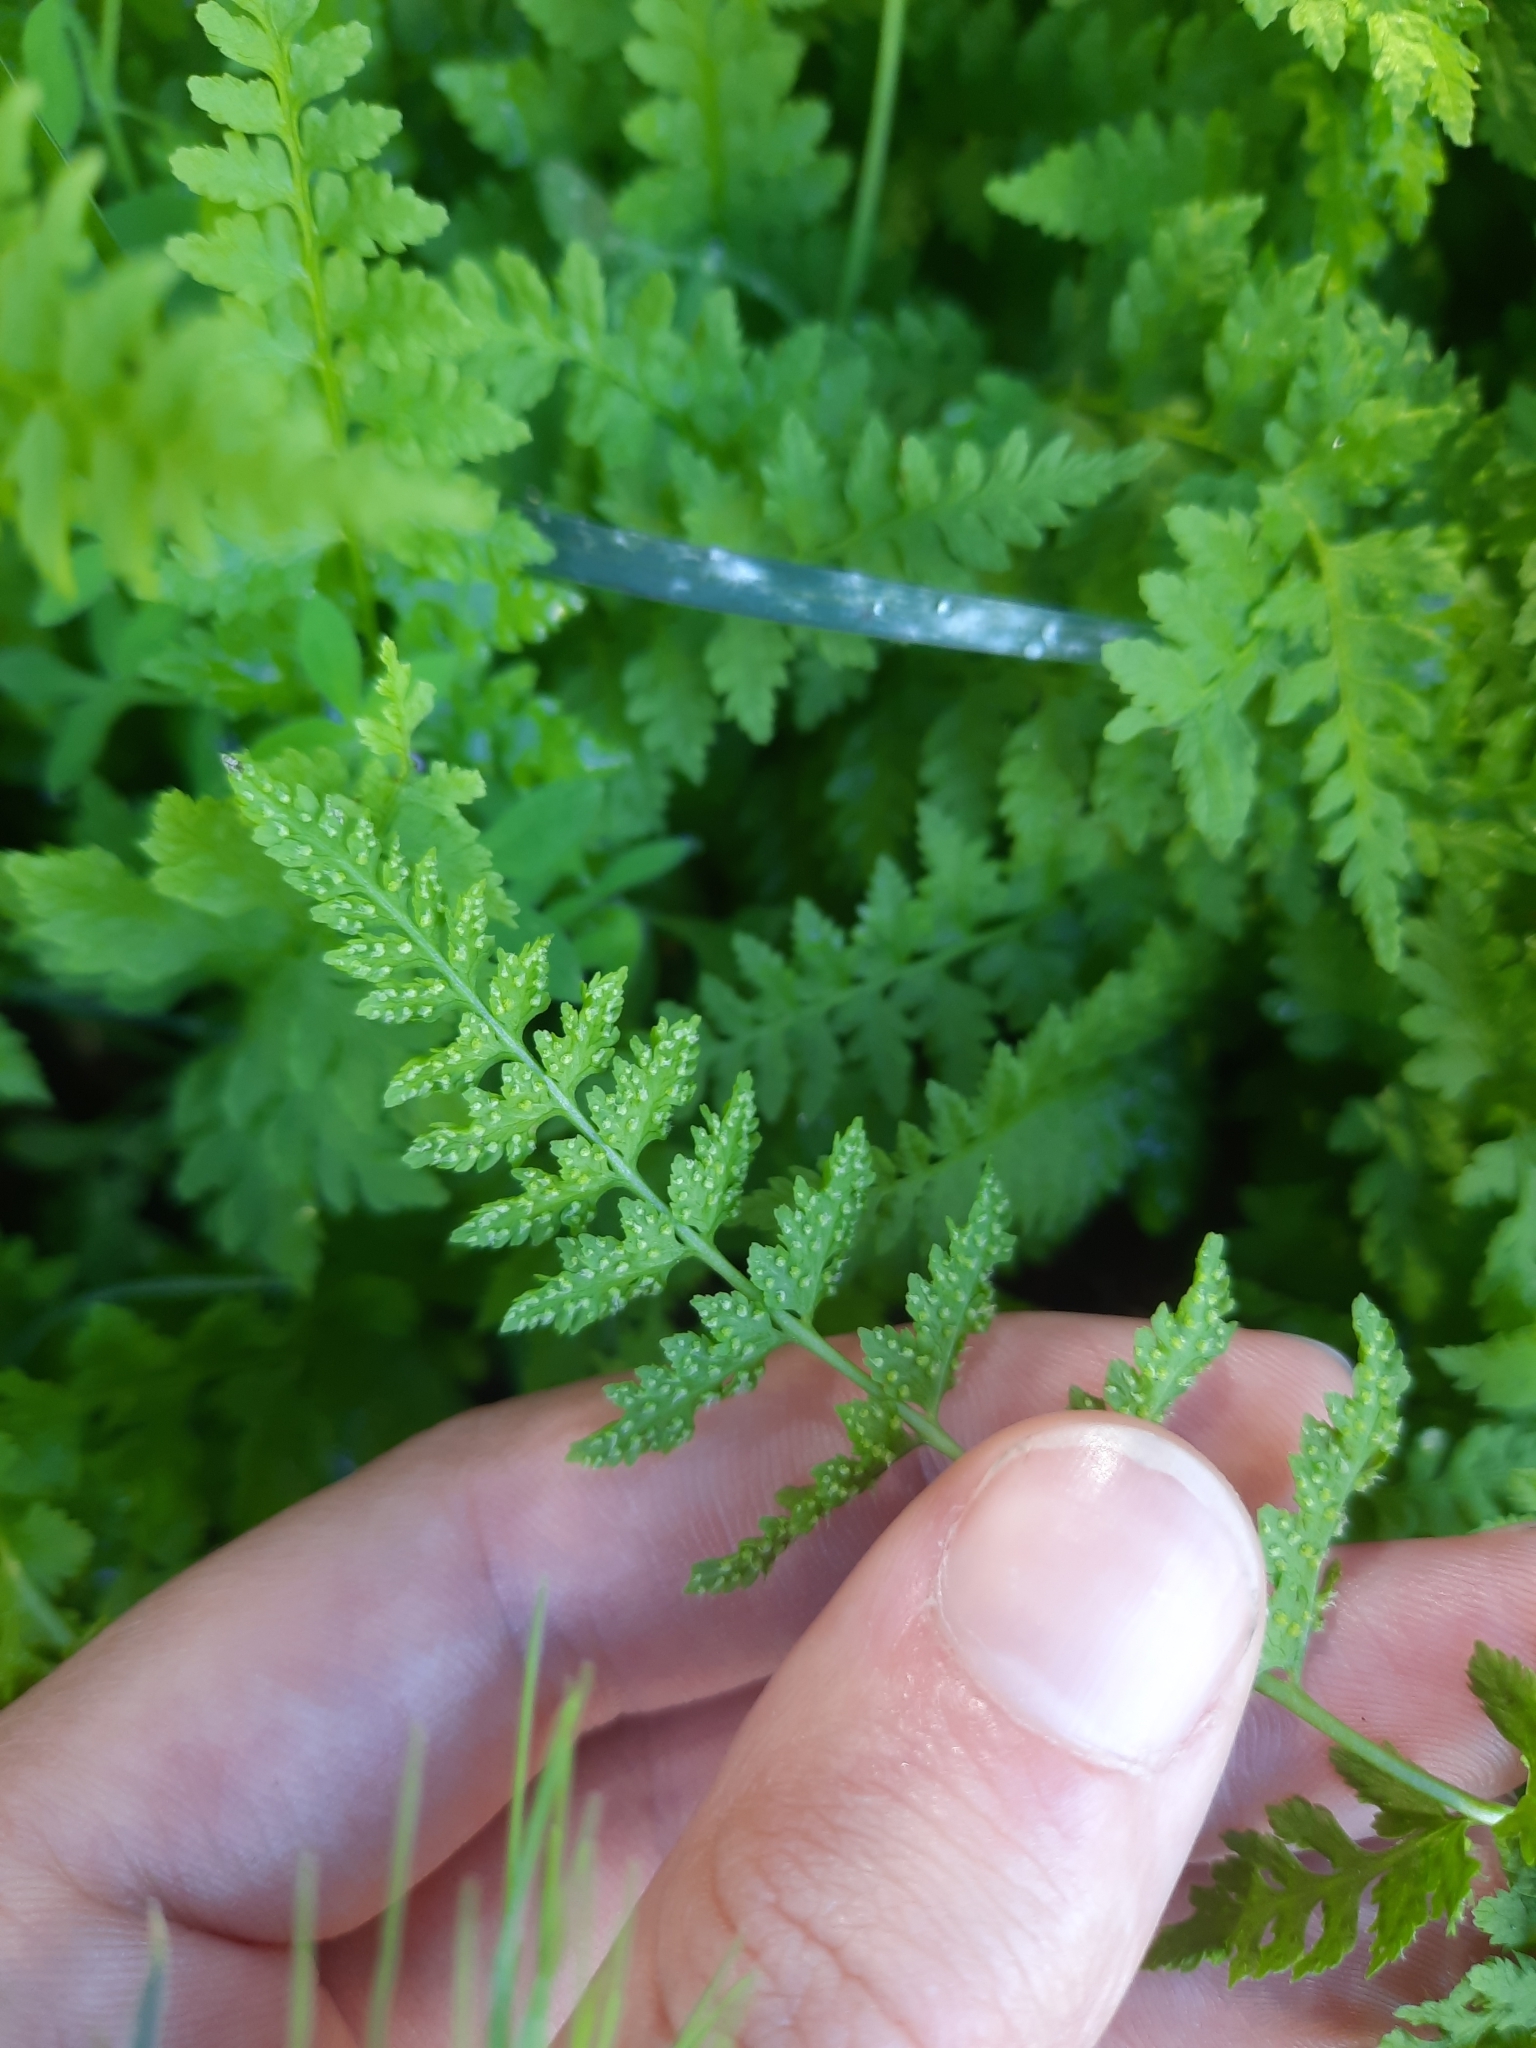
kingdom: Plantae
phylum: Tracheophyta
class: Polypodiopsida
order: Polypodiales
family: Cystopteridaceae
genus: Cystopteris
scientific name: Cystopteris fragilis
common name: Brittle bladder fern
